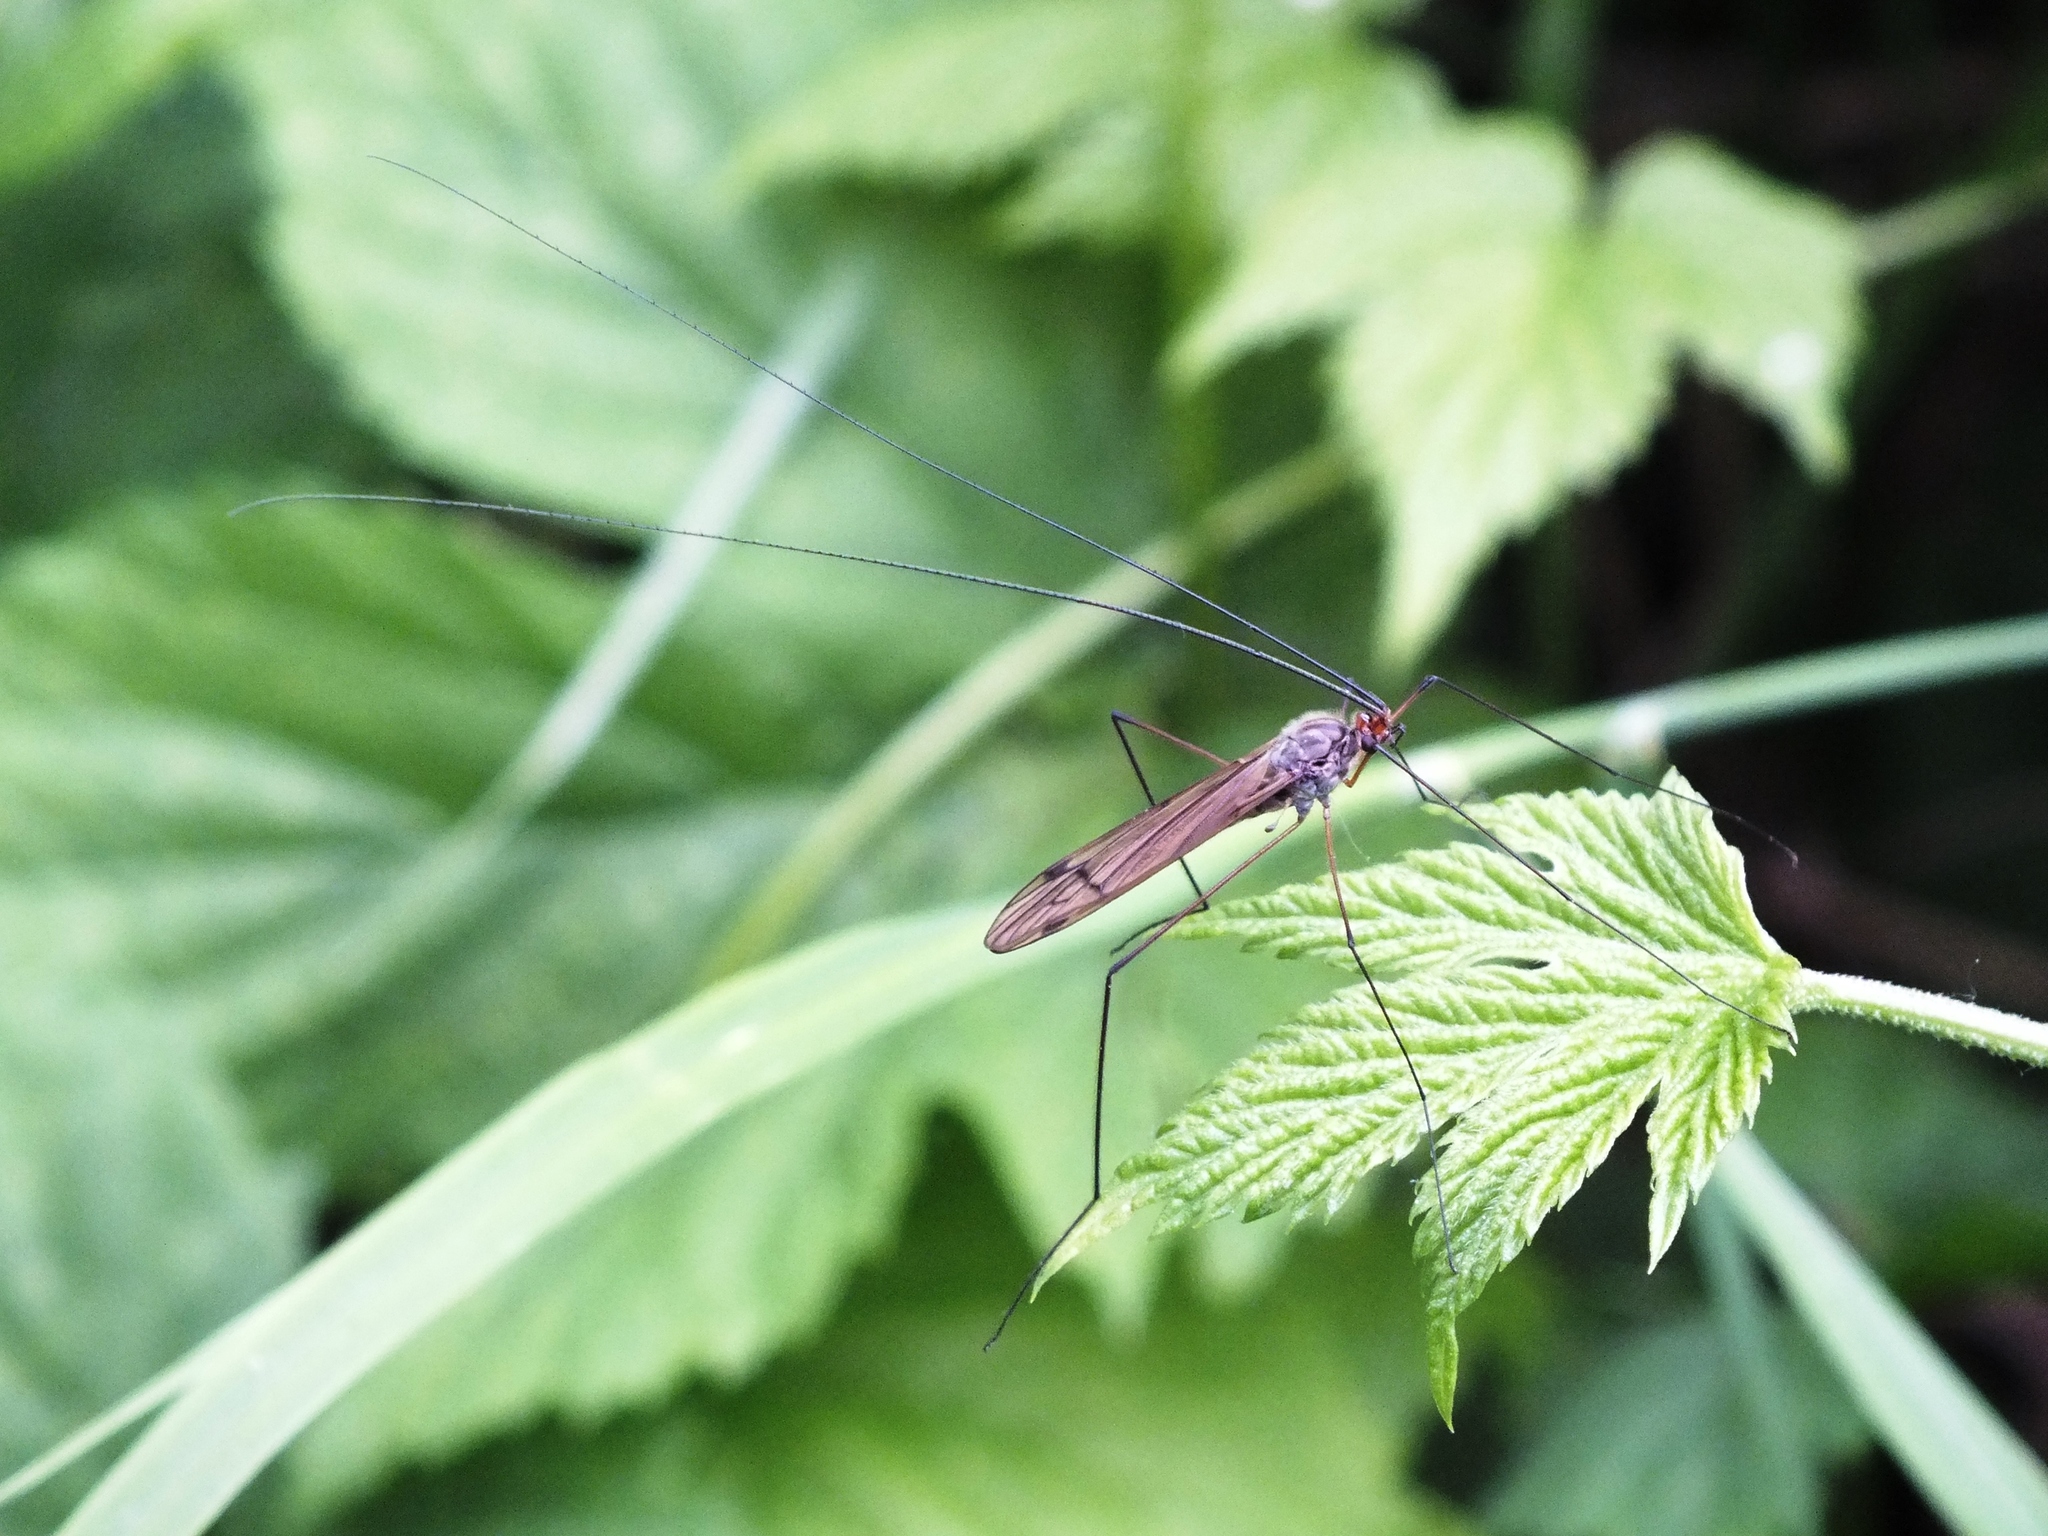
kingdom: Animalia
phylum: Arthropoda
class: Insecta
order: Diptera
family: Limoniidae
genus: Hexatoma
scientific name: Hexatoma ussuriensis
